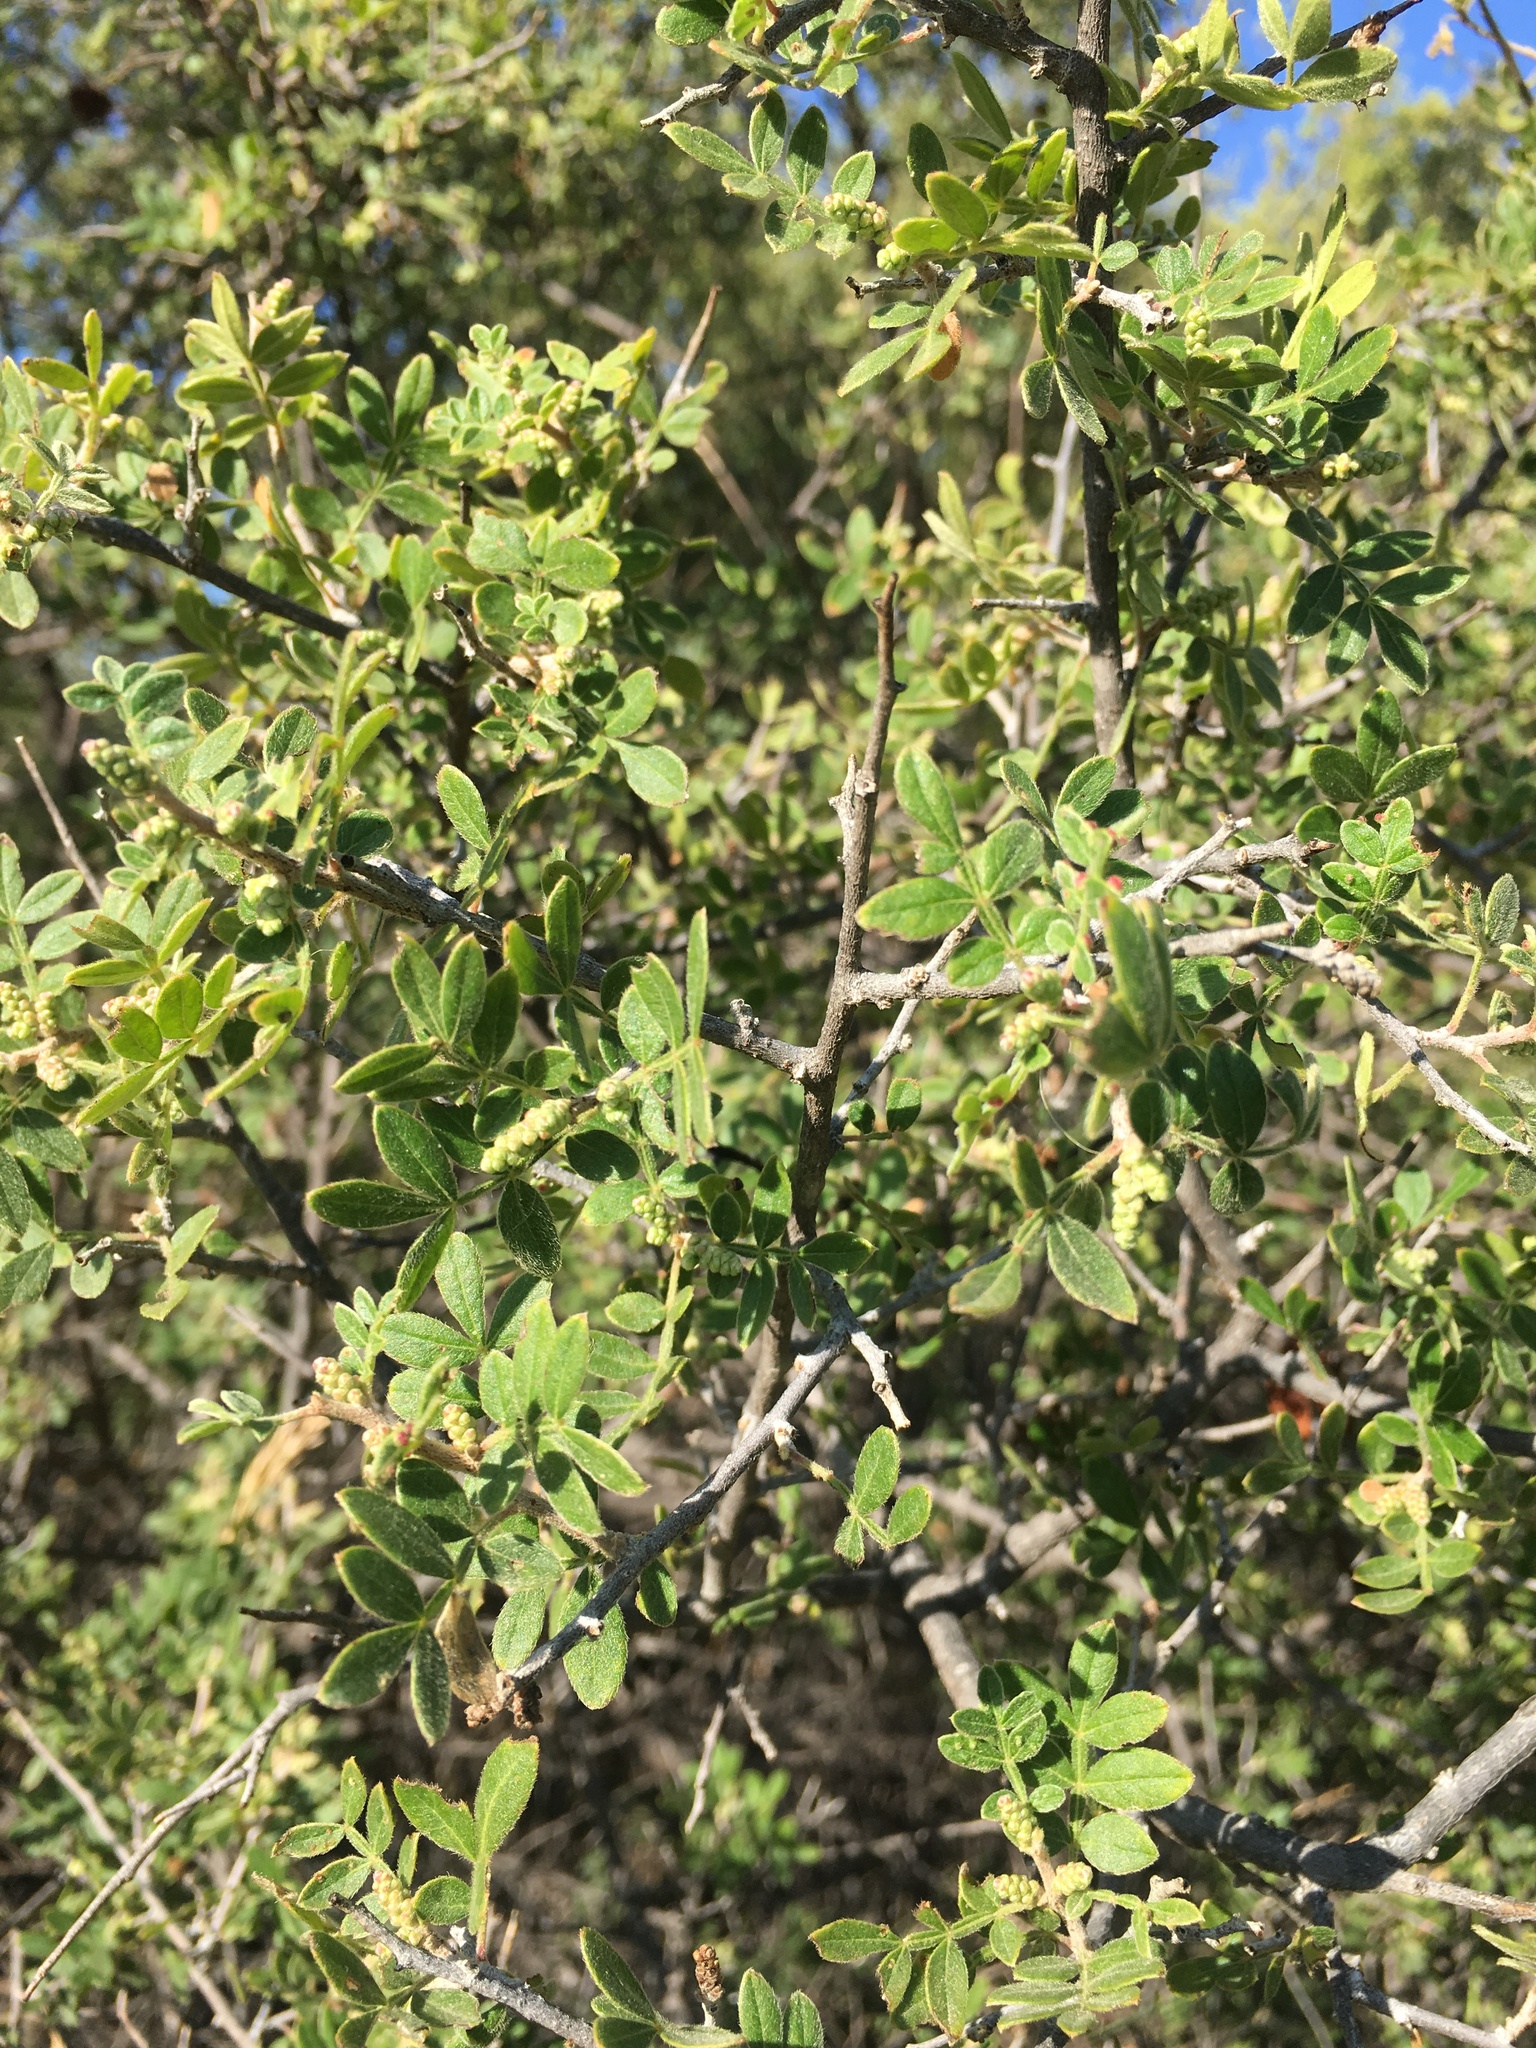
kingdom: Plantae
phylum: Tracheophyta
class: Magnoliopsida
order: Sapindales
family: Anacardiaceae
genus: Rhus
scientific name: Rhus microphylla
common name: Desert sumac
